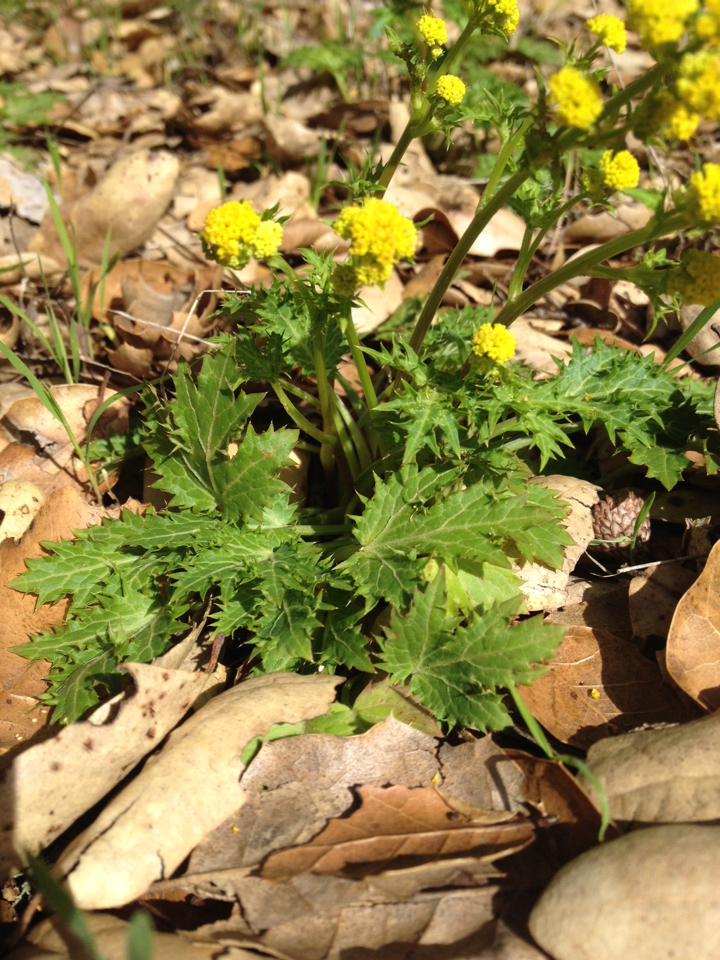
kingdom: Plantae
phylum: Tracheophyta
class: Magnoliopsida
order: Apiales
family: Apiaceae
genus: Sanicula
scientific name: Sanicula laciniata
